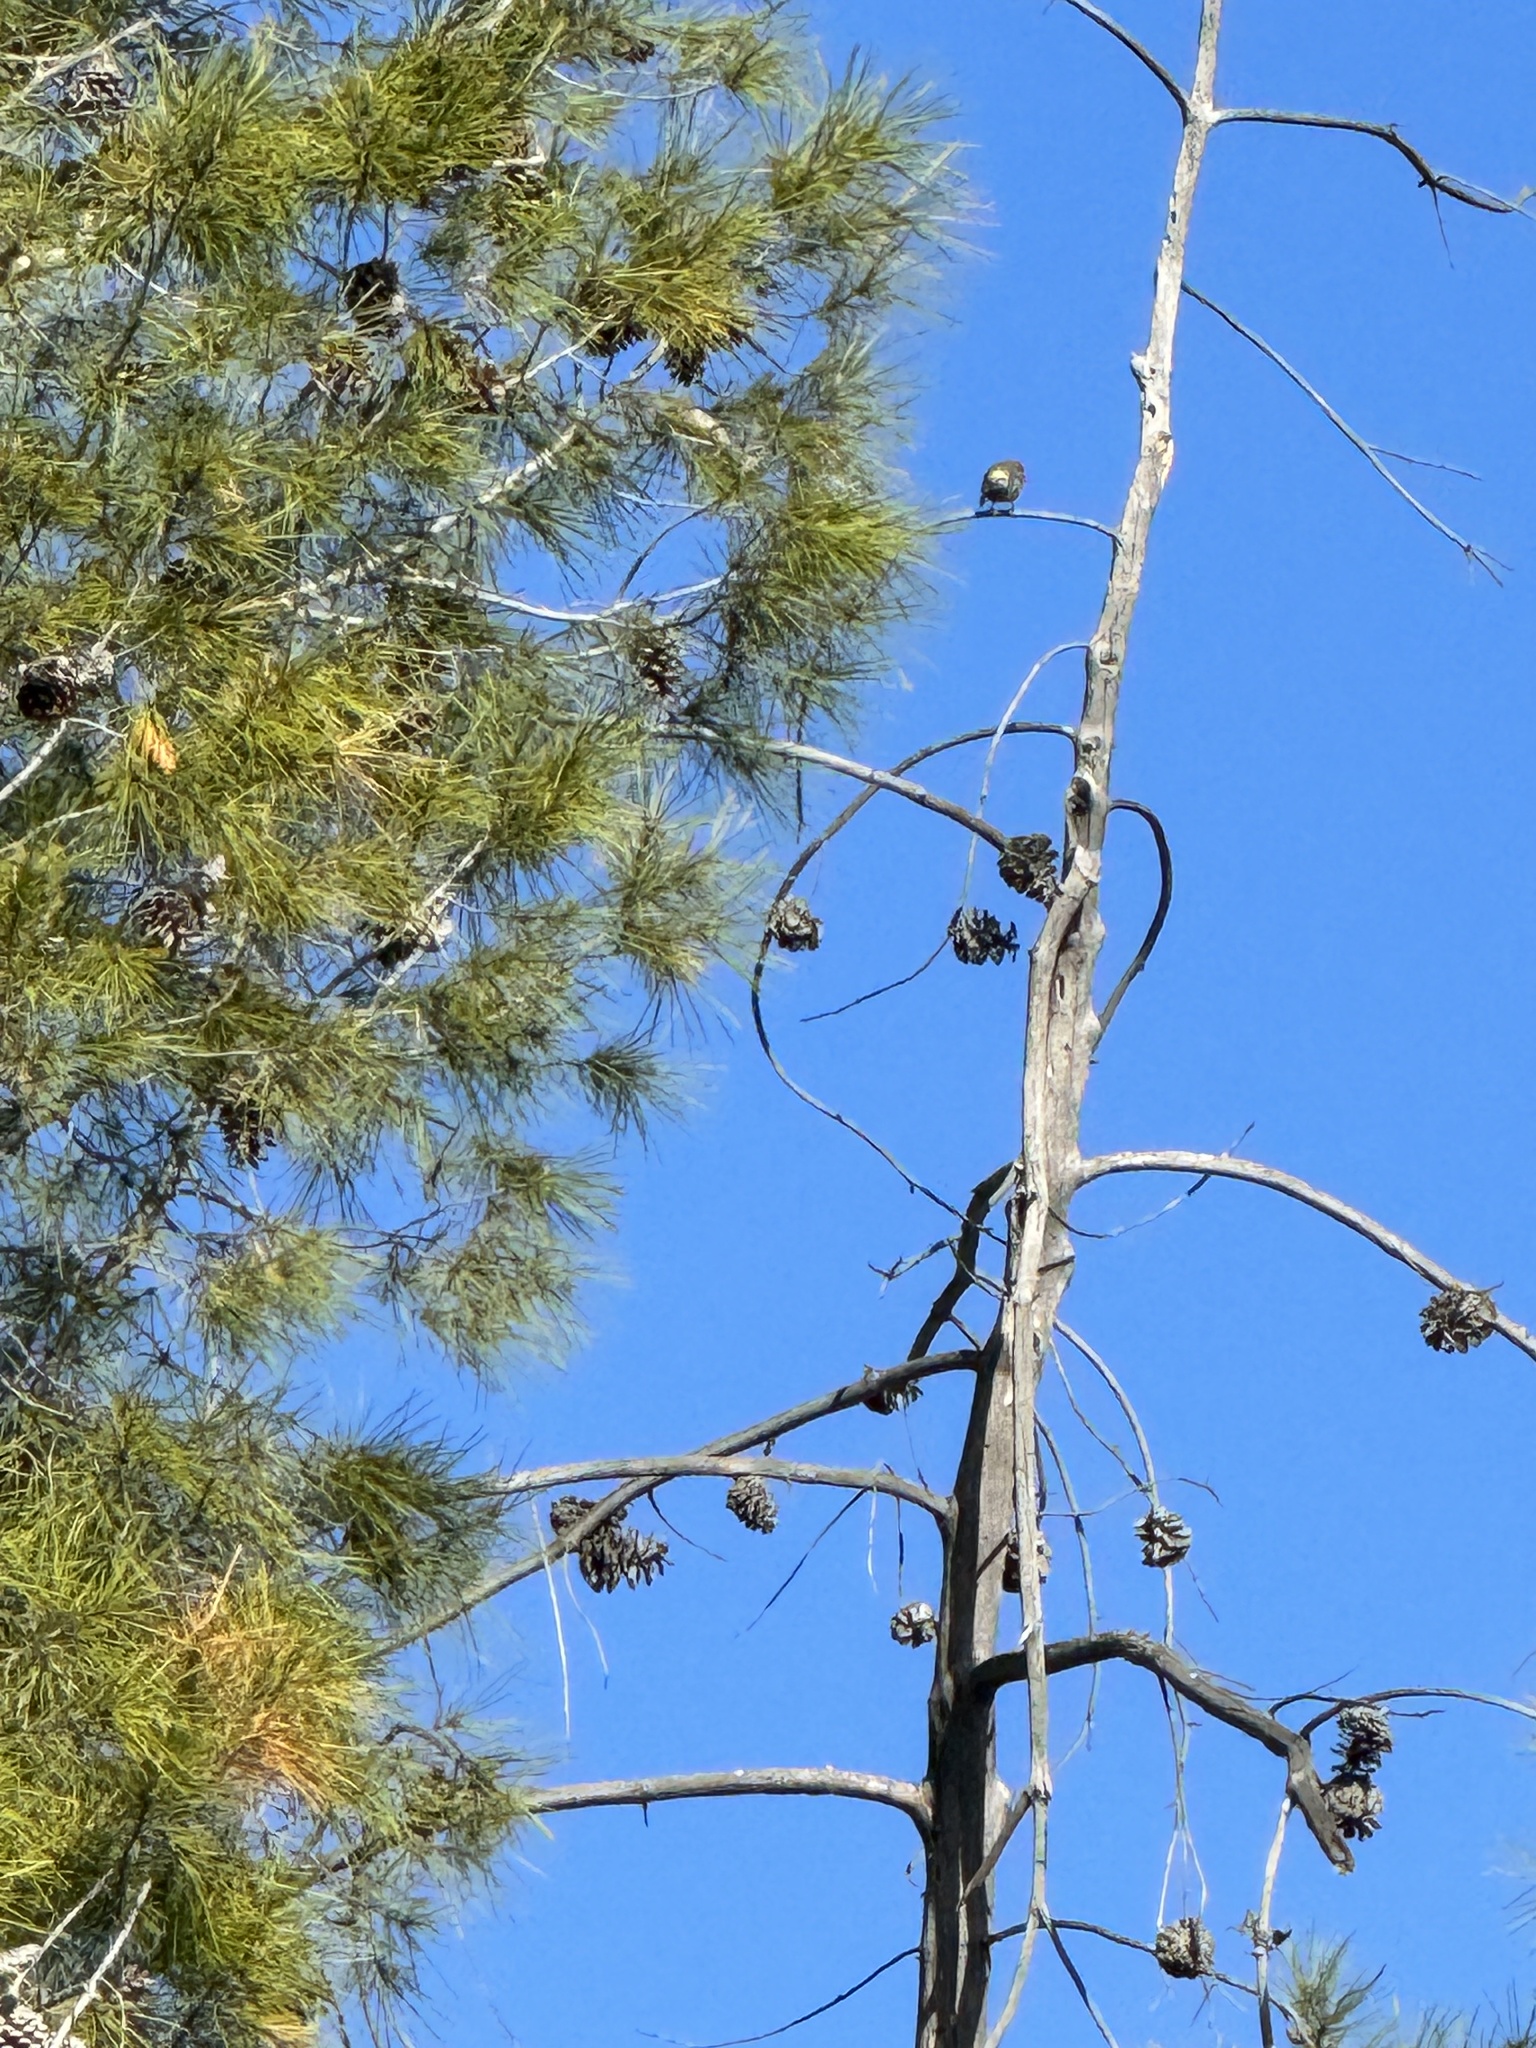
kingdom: Animalia
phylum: Chordata
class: Aves
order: Passeriformes
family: Parulidae
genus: Setophaga
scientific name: Setophaga coronata
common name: Myrtle warbler
